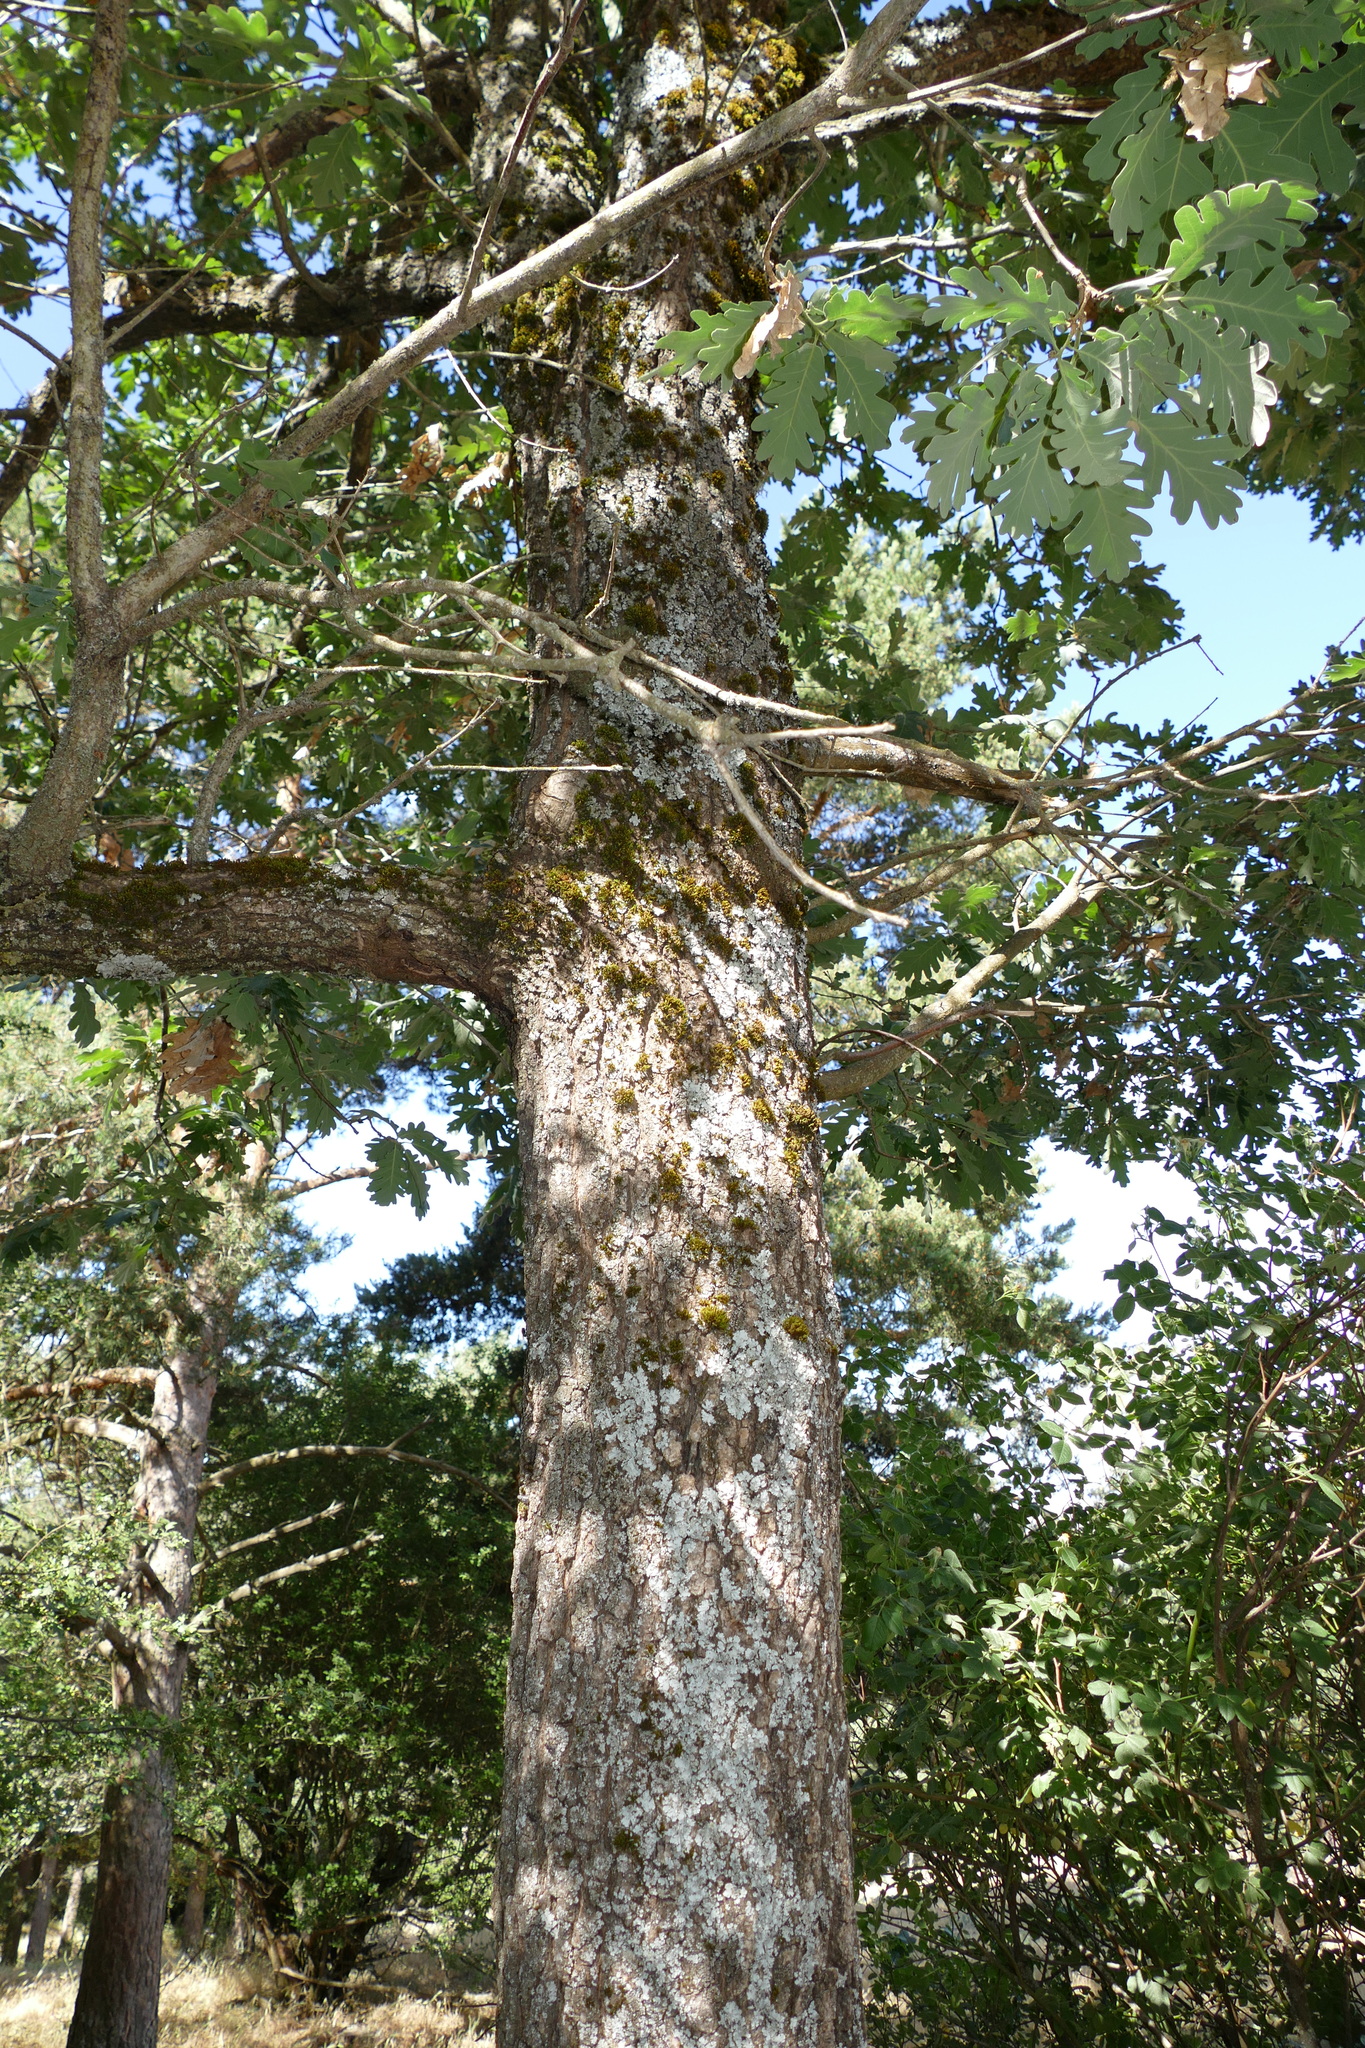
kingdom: Plantae
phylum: Tracheophyta
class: Magnoliopsida
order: Fagales
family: Fagaceae
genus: Quercus
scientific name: Quercus pyrenaica
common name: Pyrenean oak
